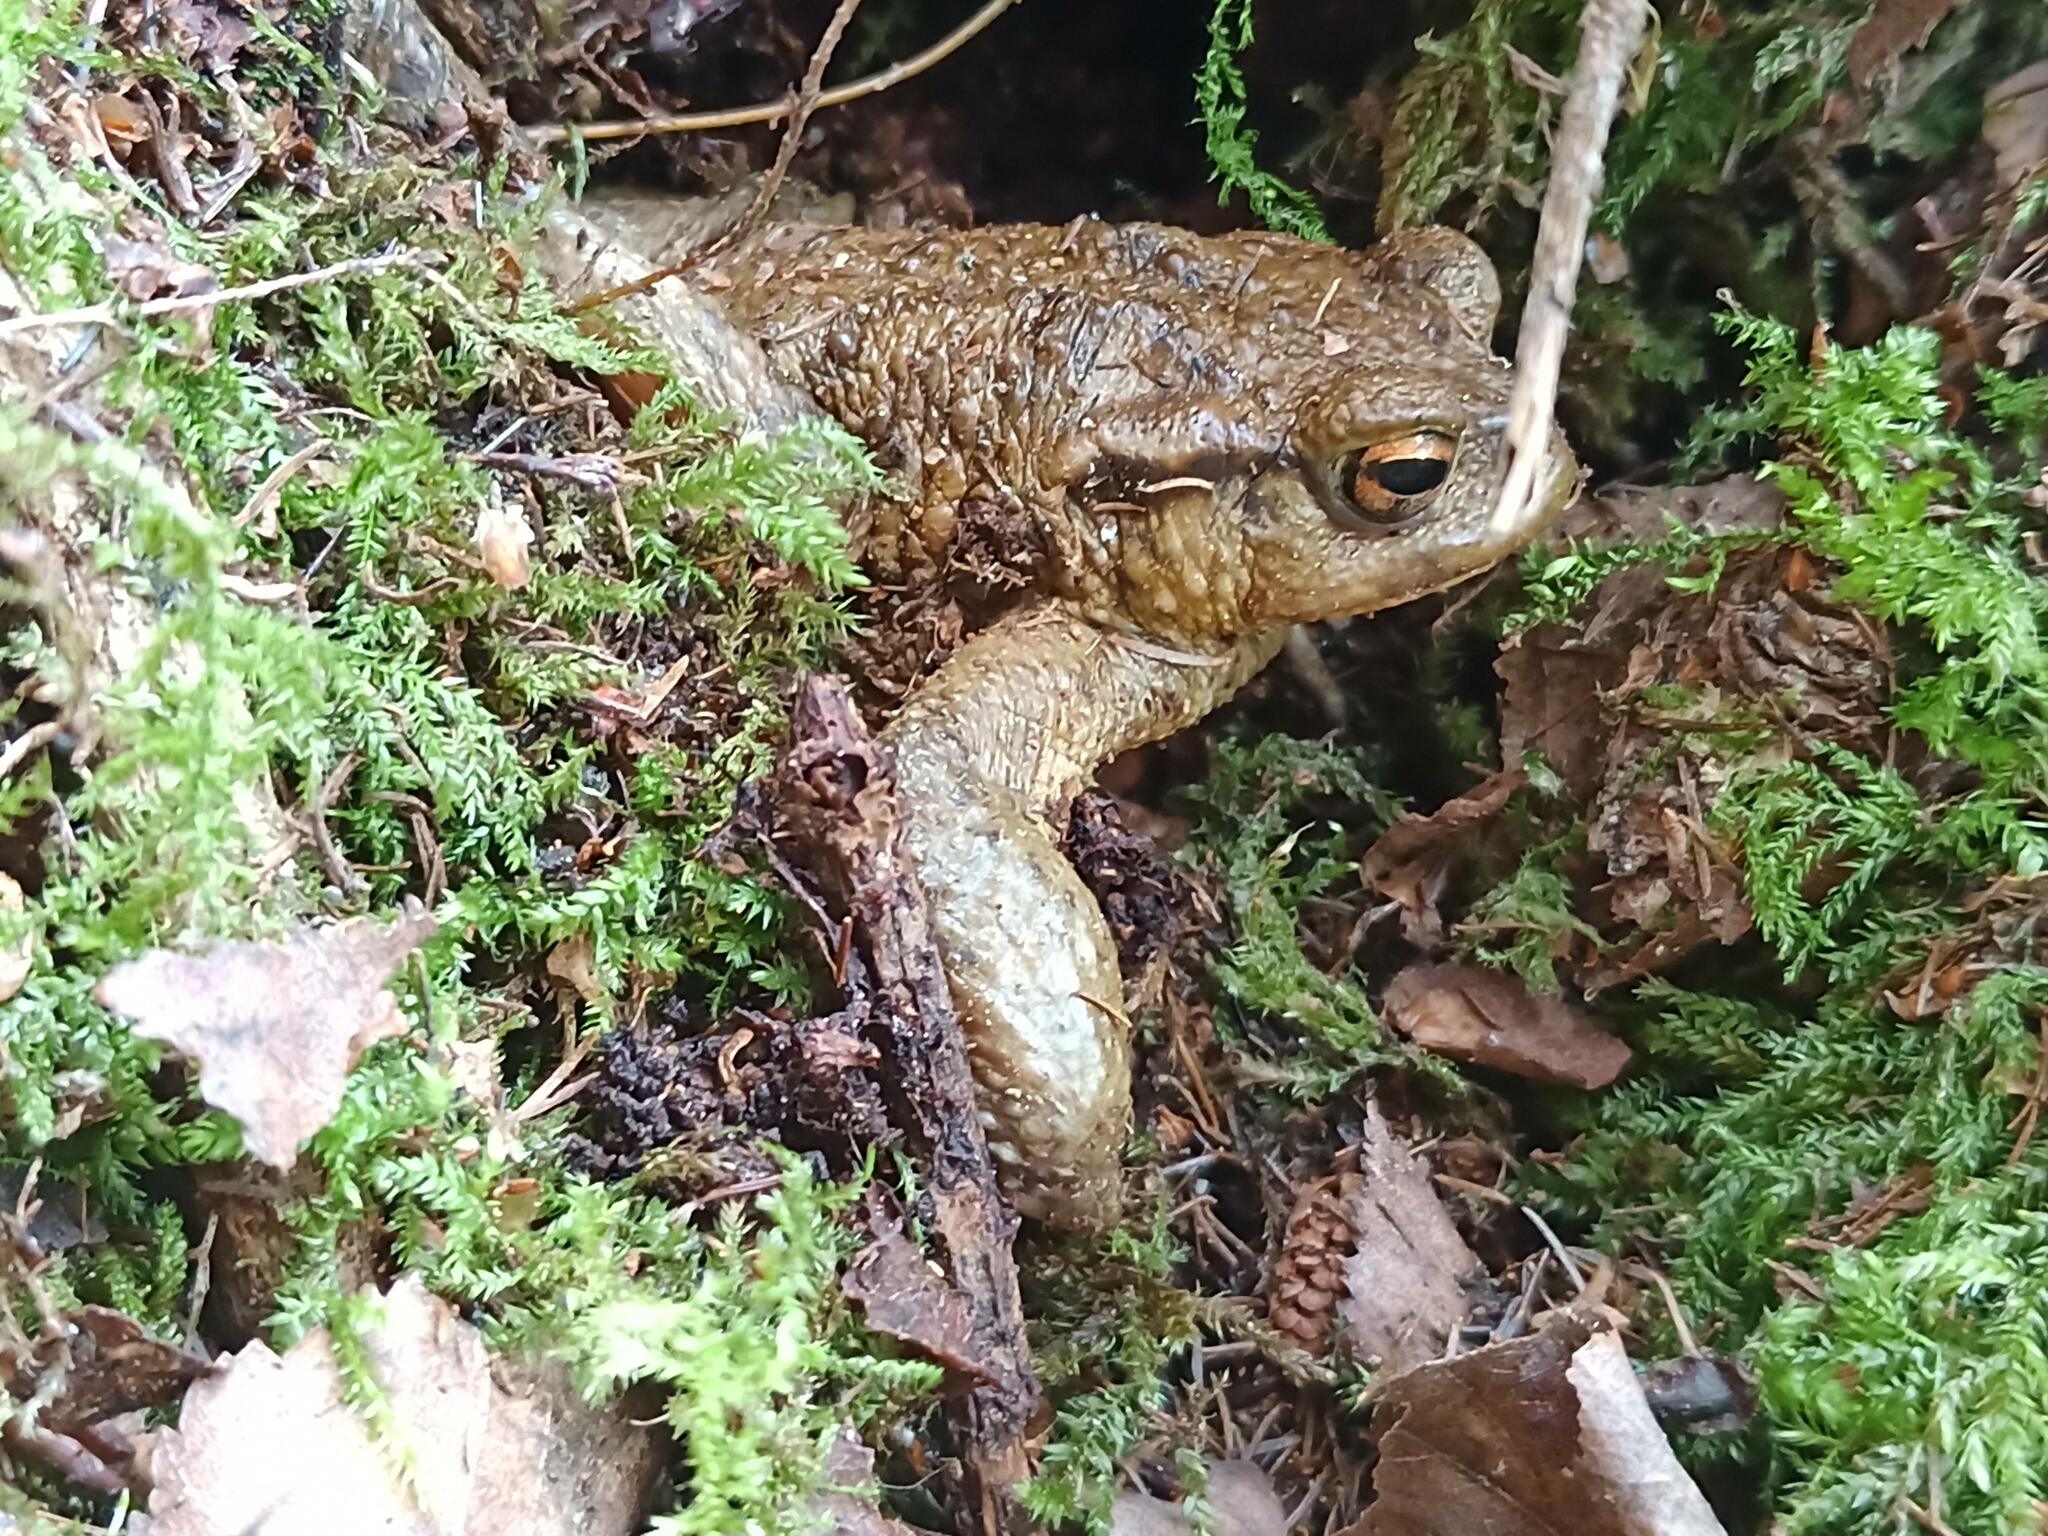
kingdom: Animalia
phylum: Chordata
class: Amphibia
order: Anura
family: Bufonidae
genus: Bufo
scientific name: Bufo spinosus
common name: Western common toad
